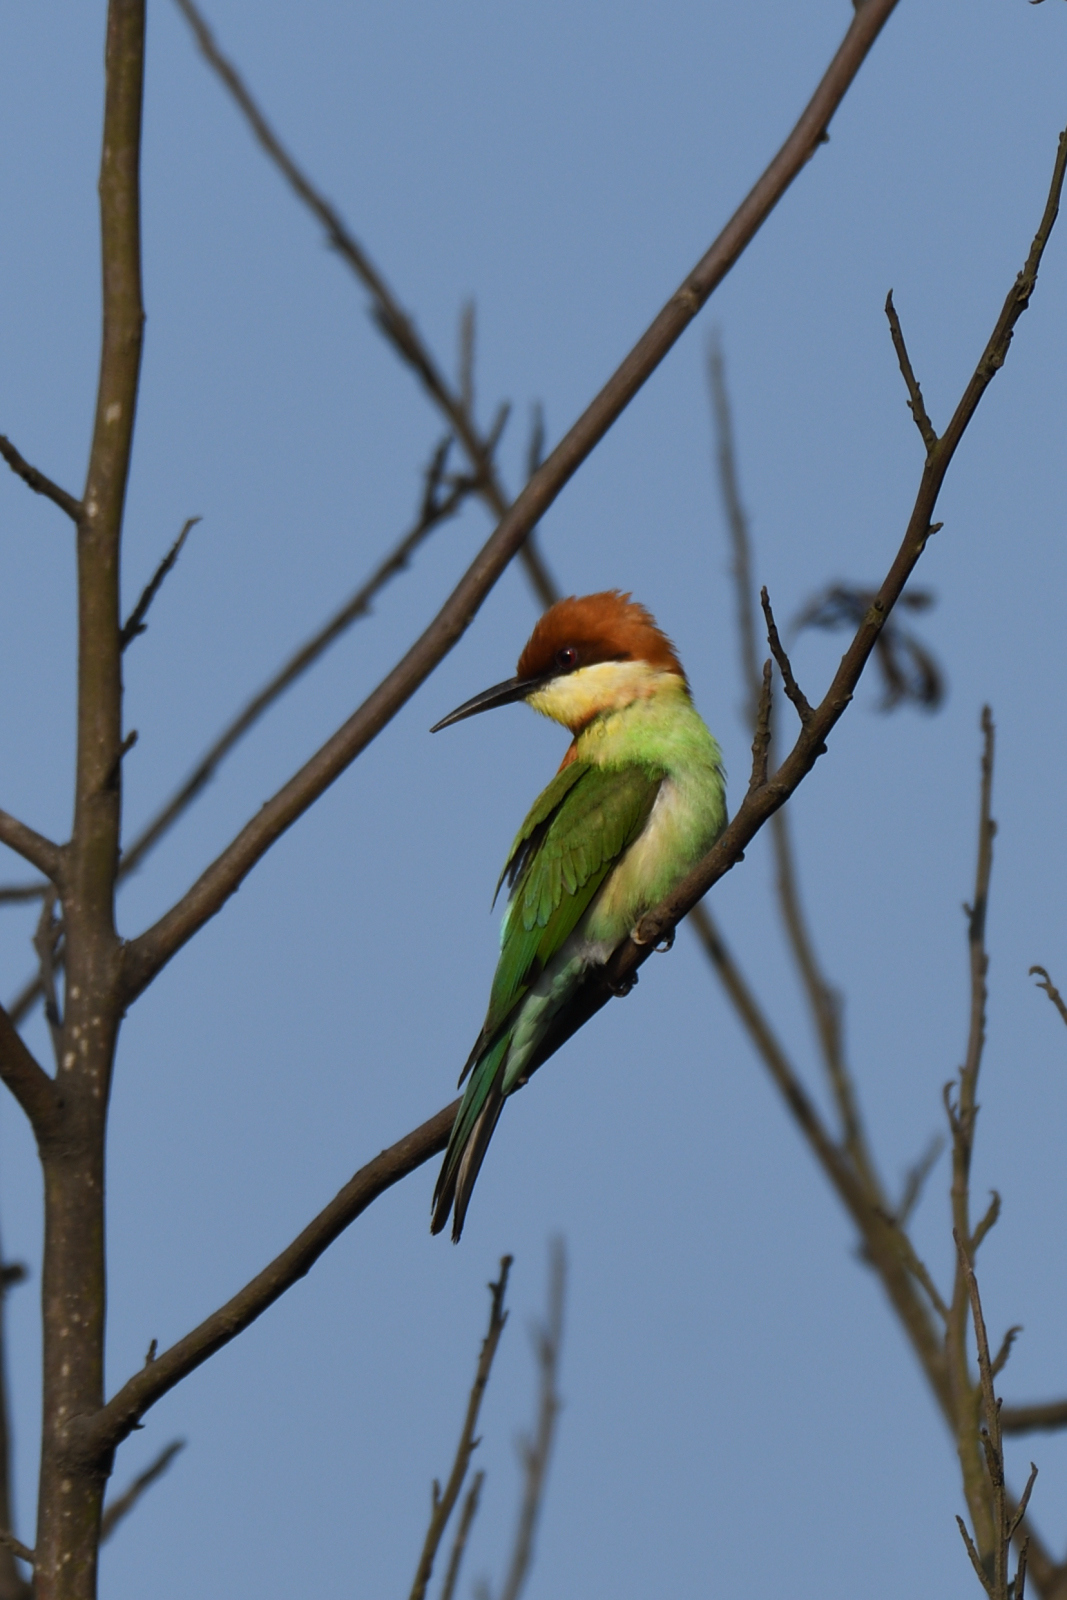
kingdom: Animalia
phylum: Chordata
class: Aves
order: Coraciiformes
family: Meropidae
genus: Merops
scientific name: Merops leschenaulti
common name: Chestnut-headed bee-eater
